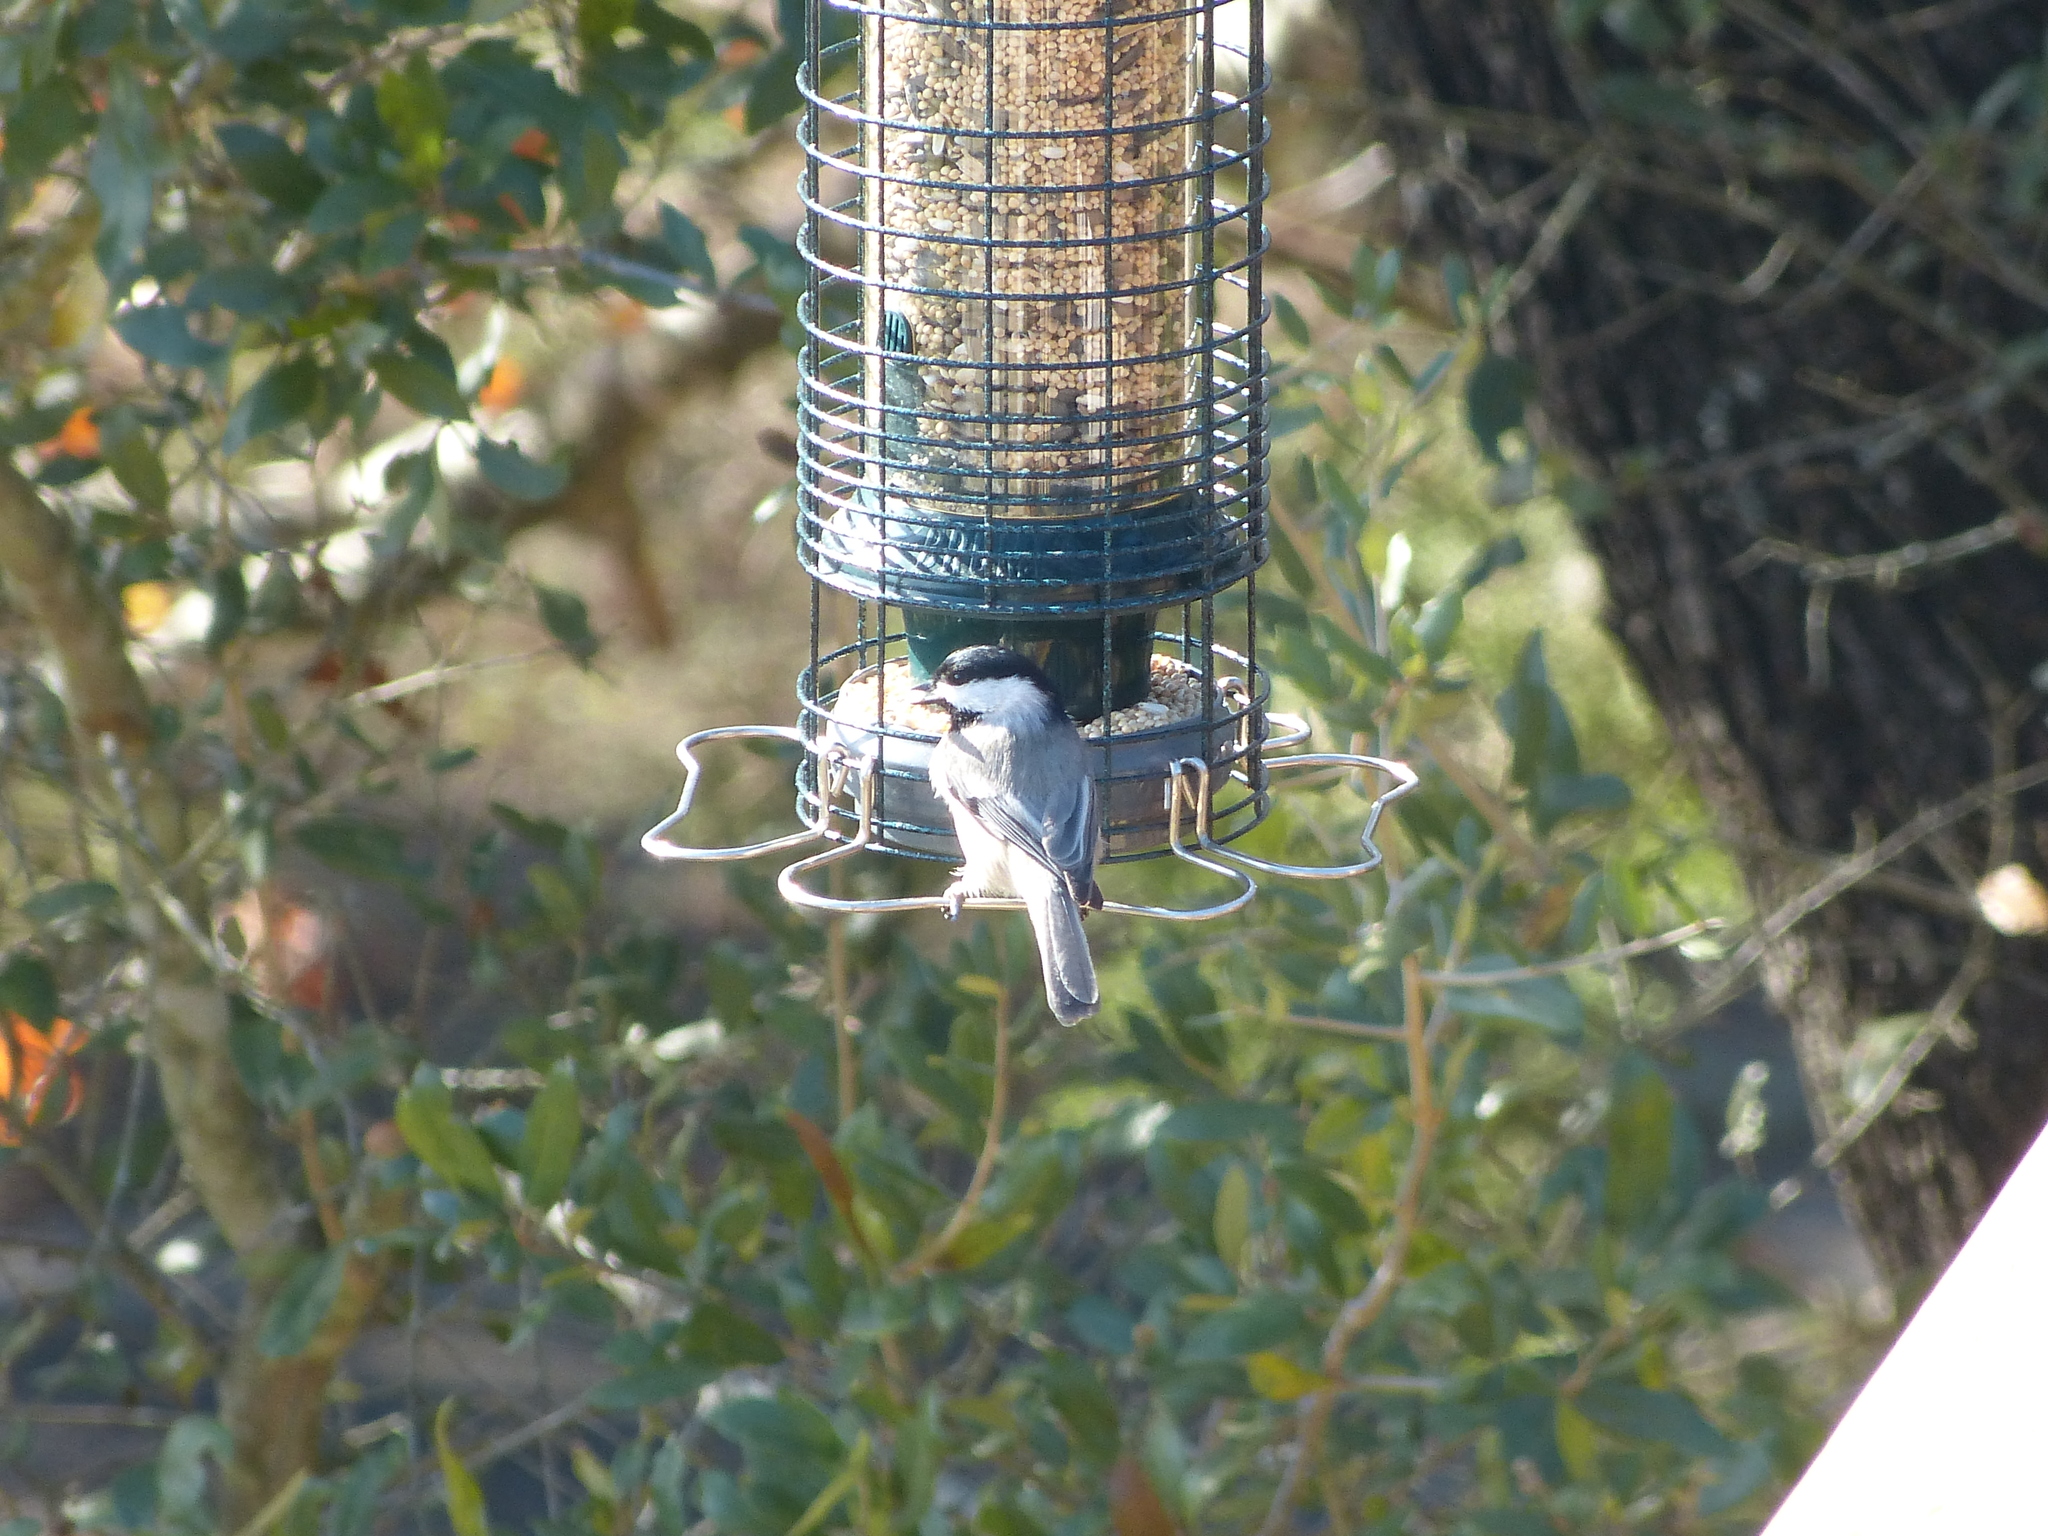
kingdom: Animalia
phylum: Chordata
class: Aves
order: Passeriformes
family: Paridae
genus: Poecile
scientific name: Poecile carolinensis
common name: Carolina chickadee
